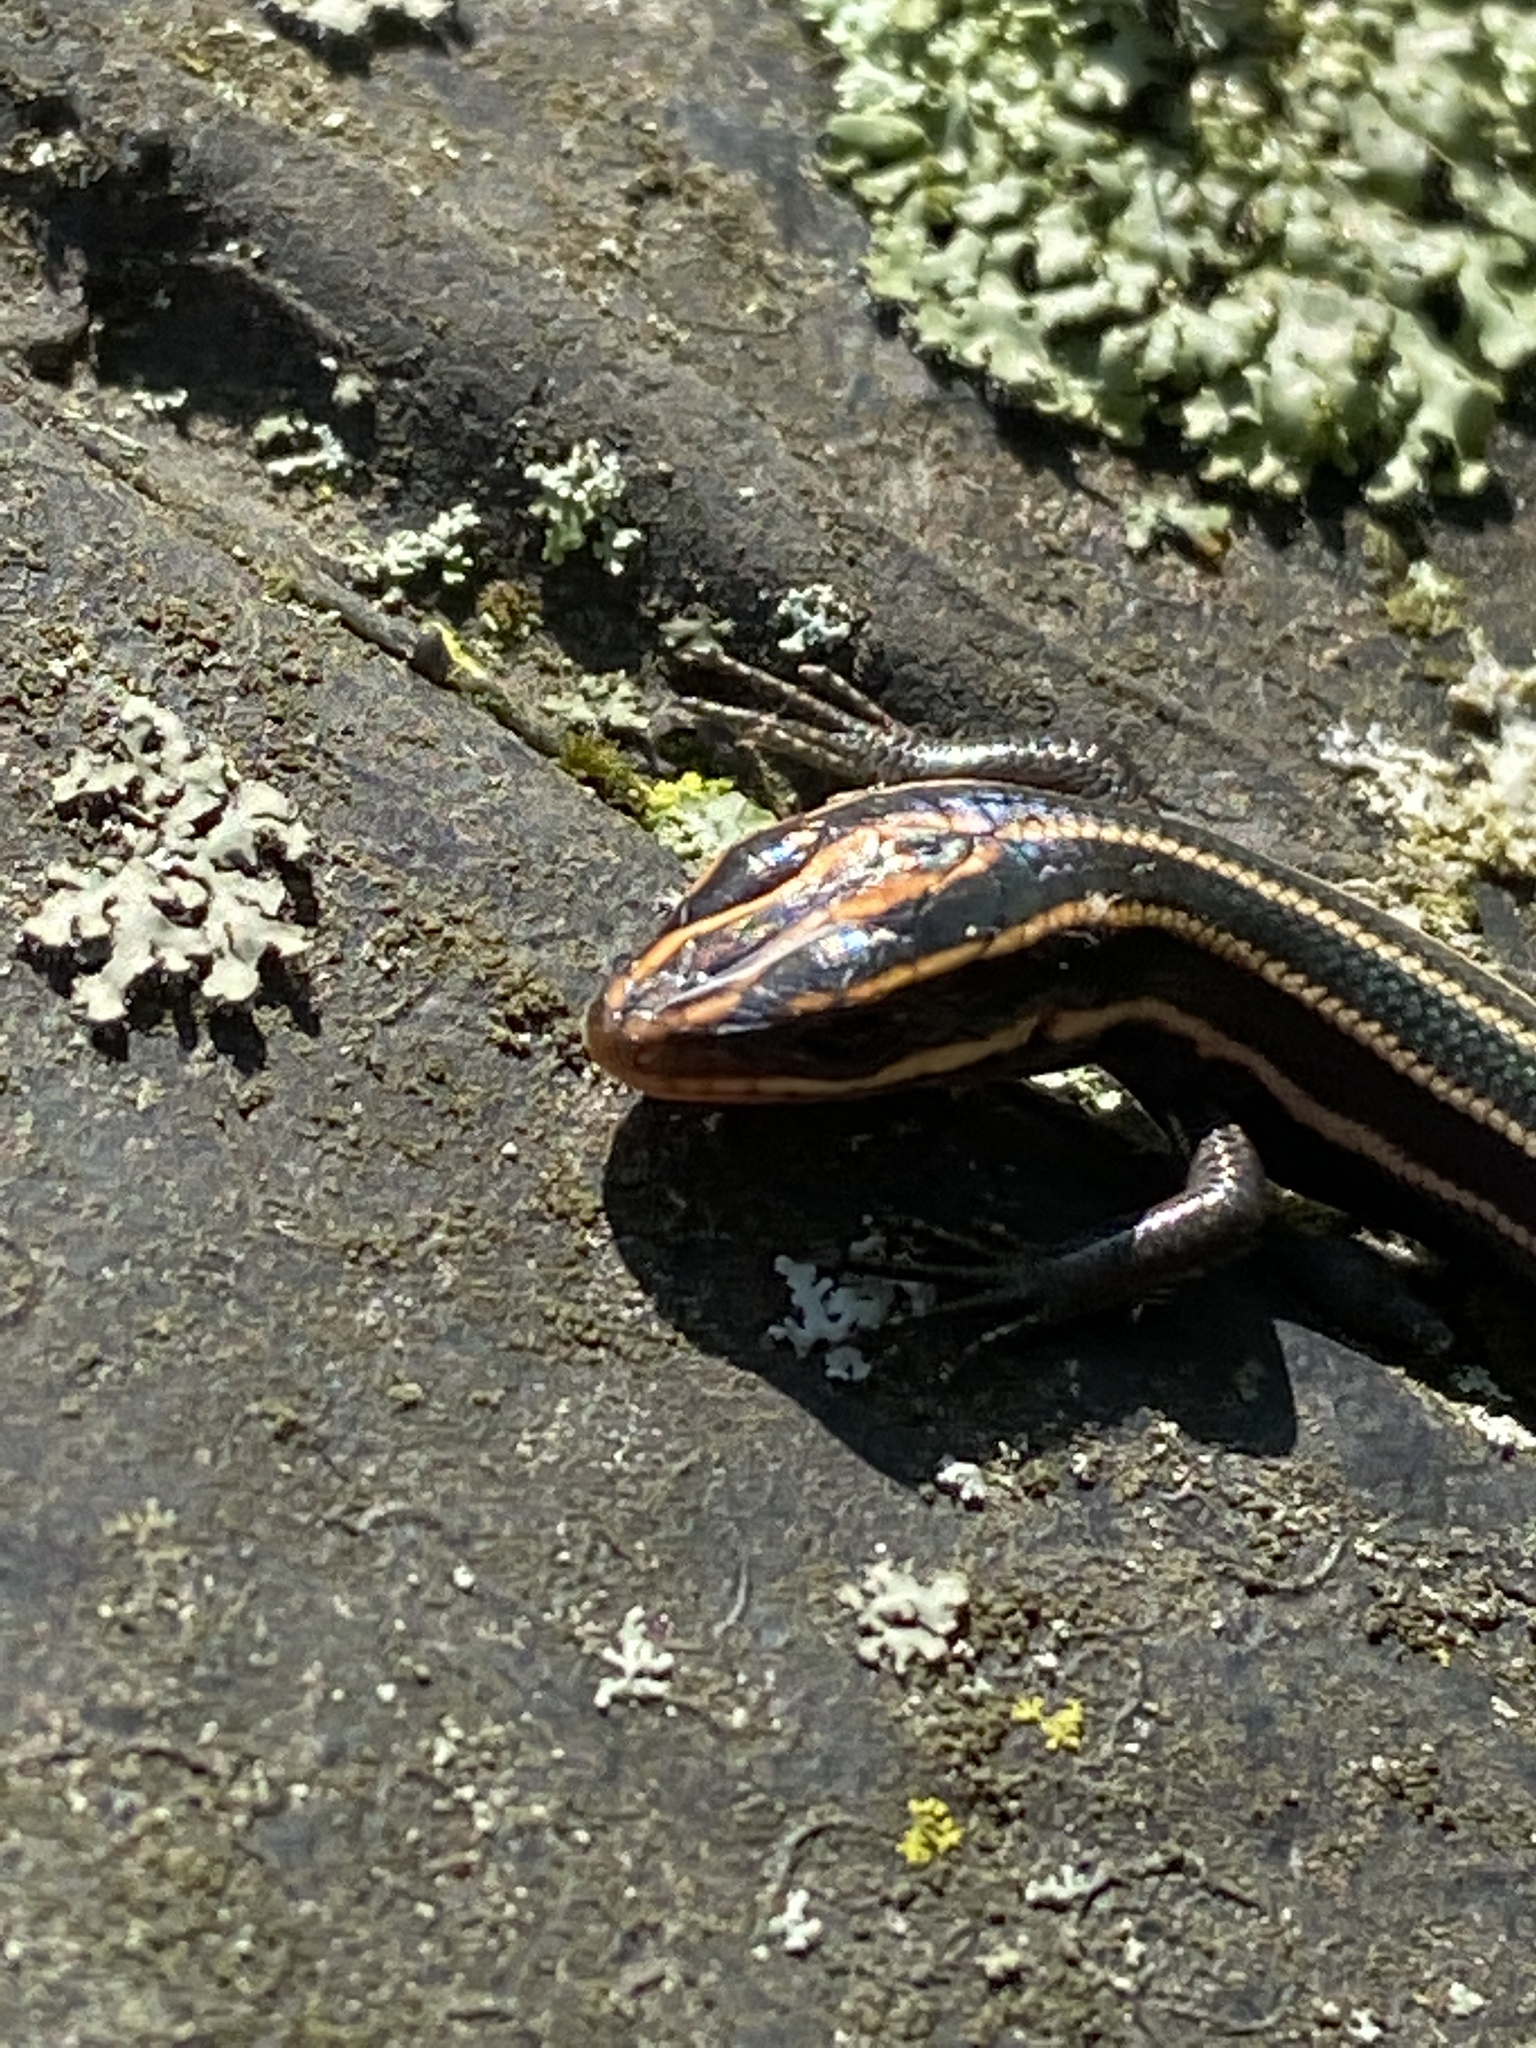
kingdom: Animalia
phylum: Chordata
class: Squamata
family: Scincidae
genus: Plestiodon
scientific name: Plestiodon fasciatus
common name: Five-lined skink
